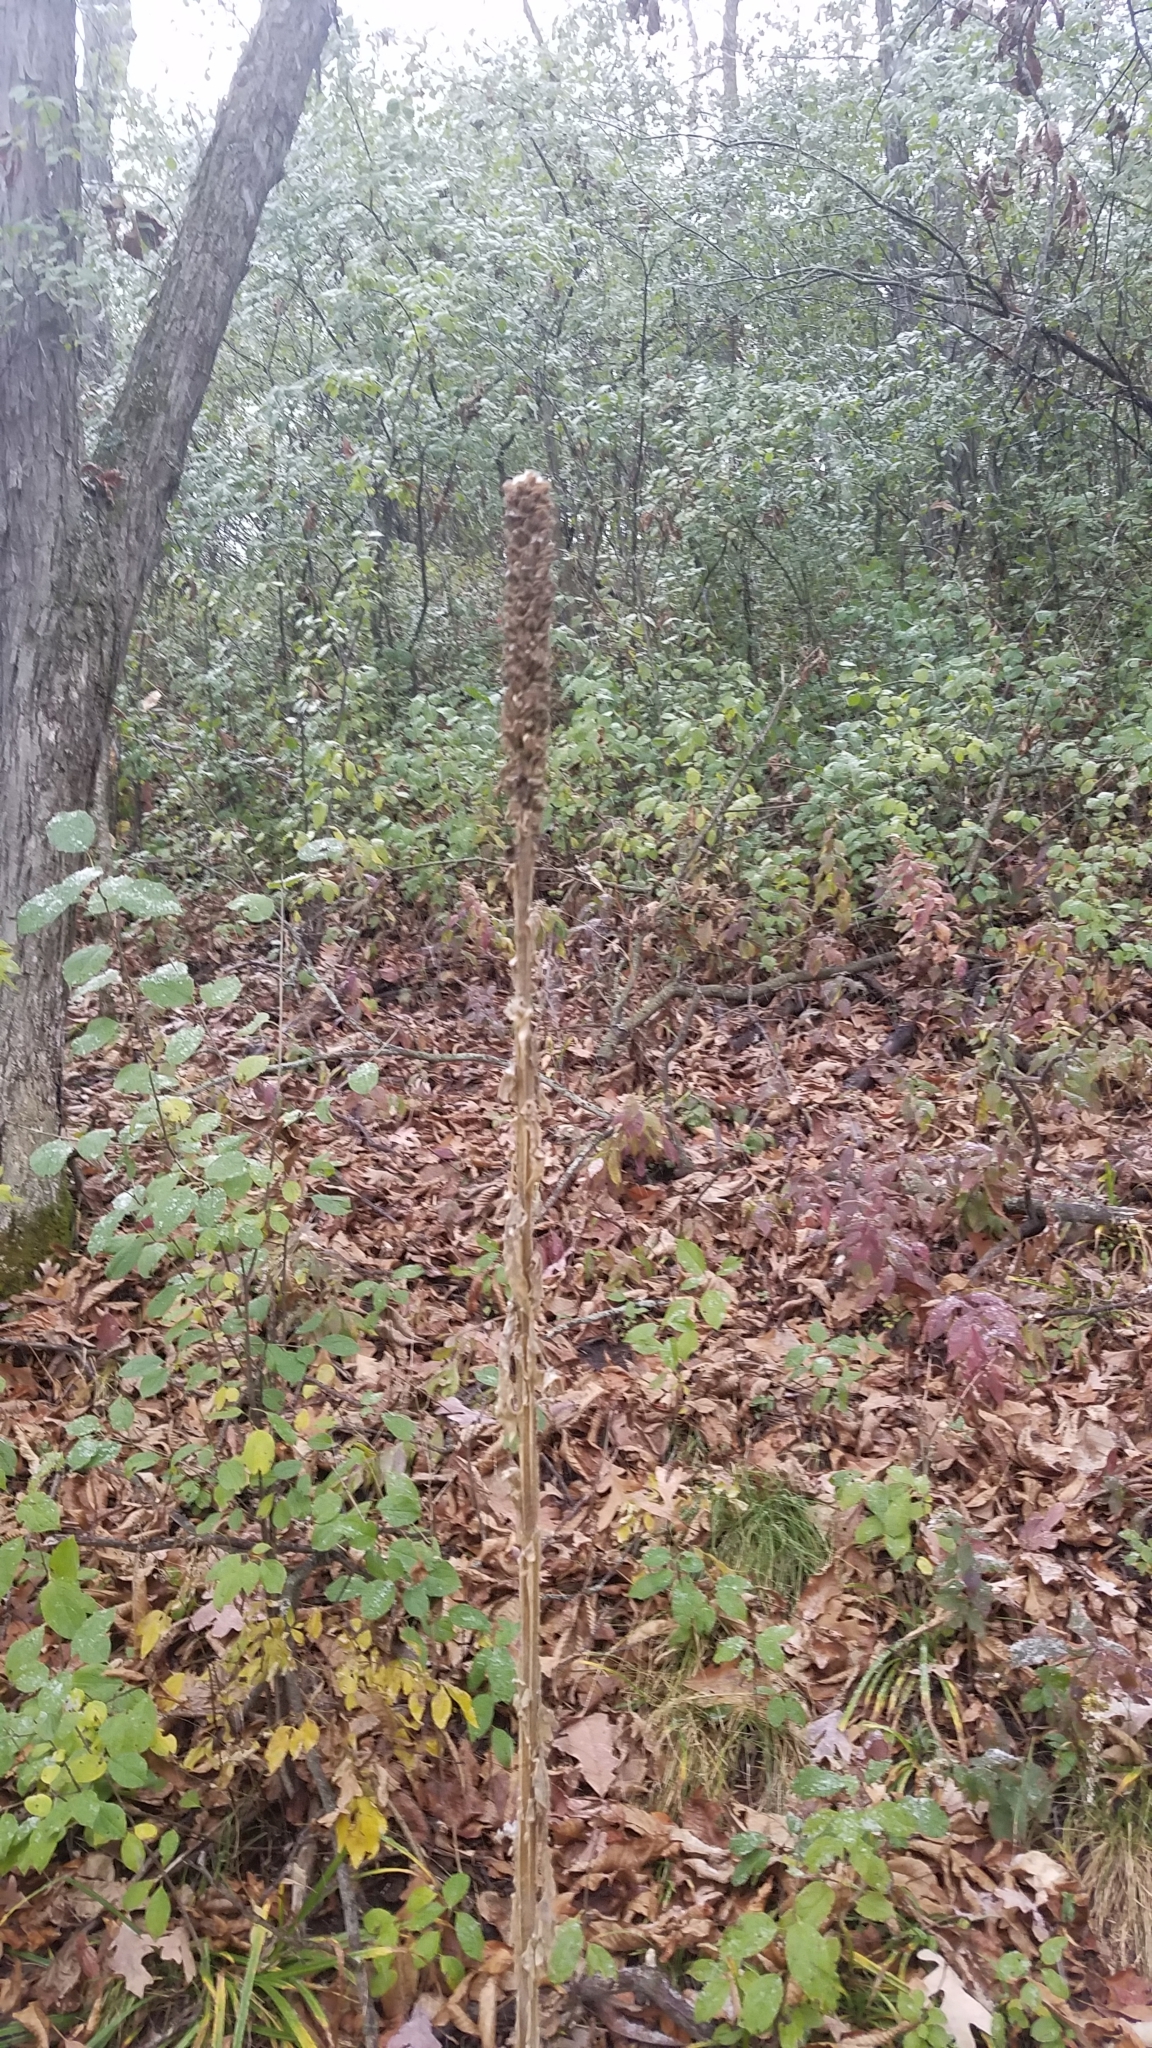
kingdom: Plantae
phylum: Tracheophyta
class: Magnoliopsida
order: Lamiales
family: Scrophulariaceae
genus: Verbascum
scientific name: Verbascum thapsus
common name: Common mullein
